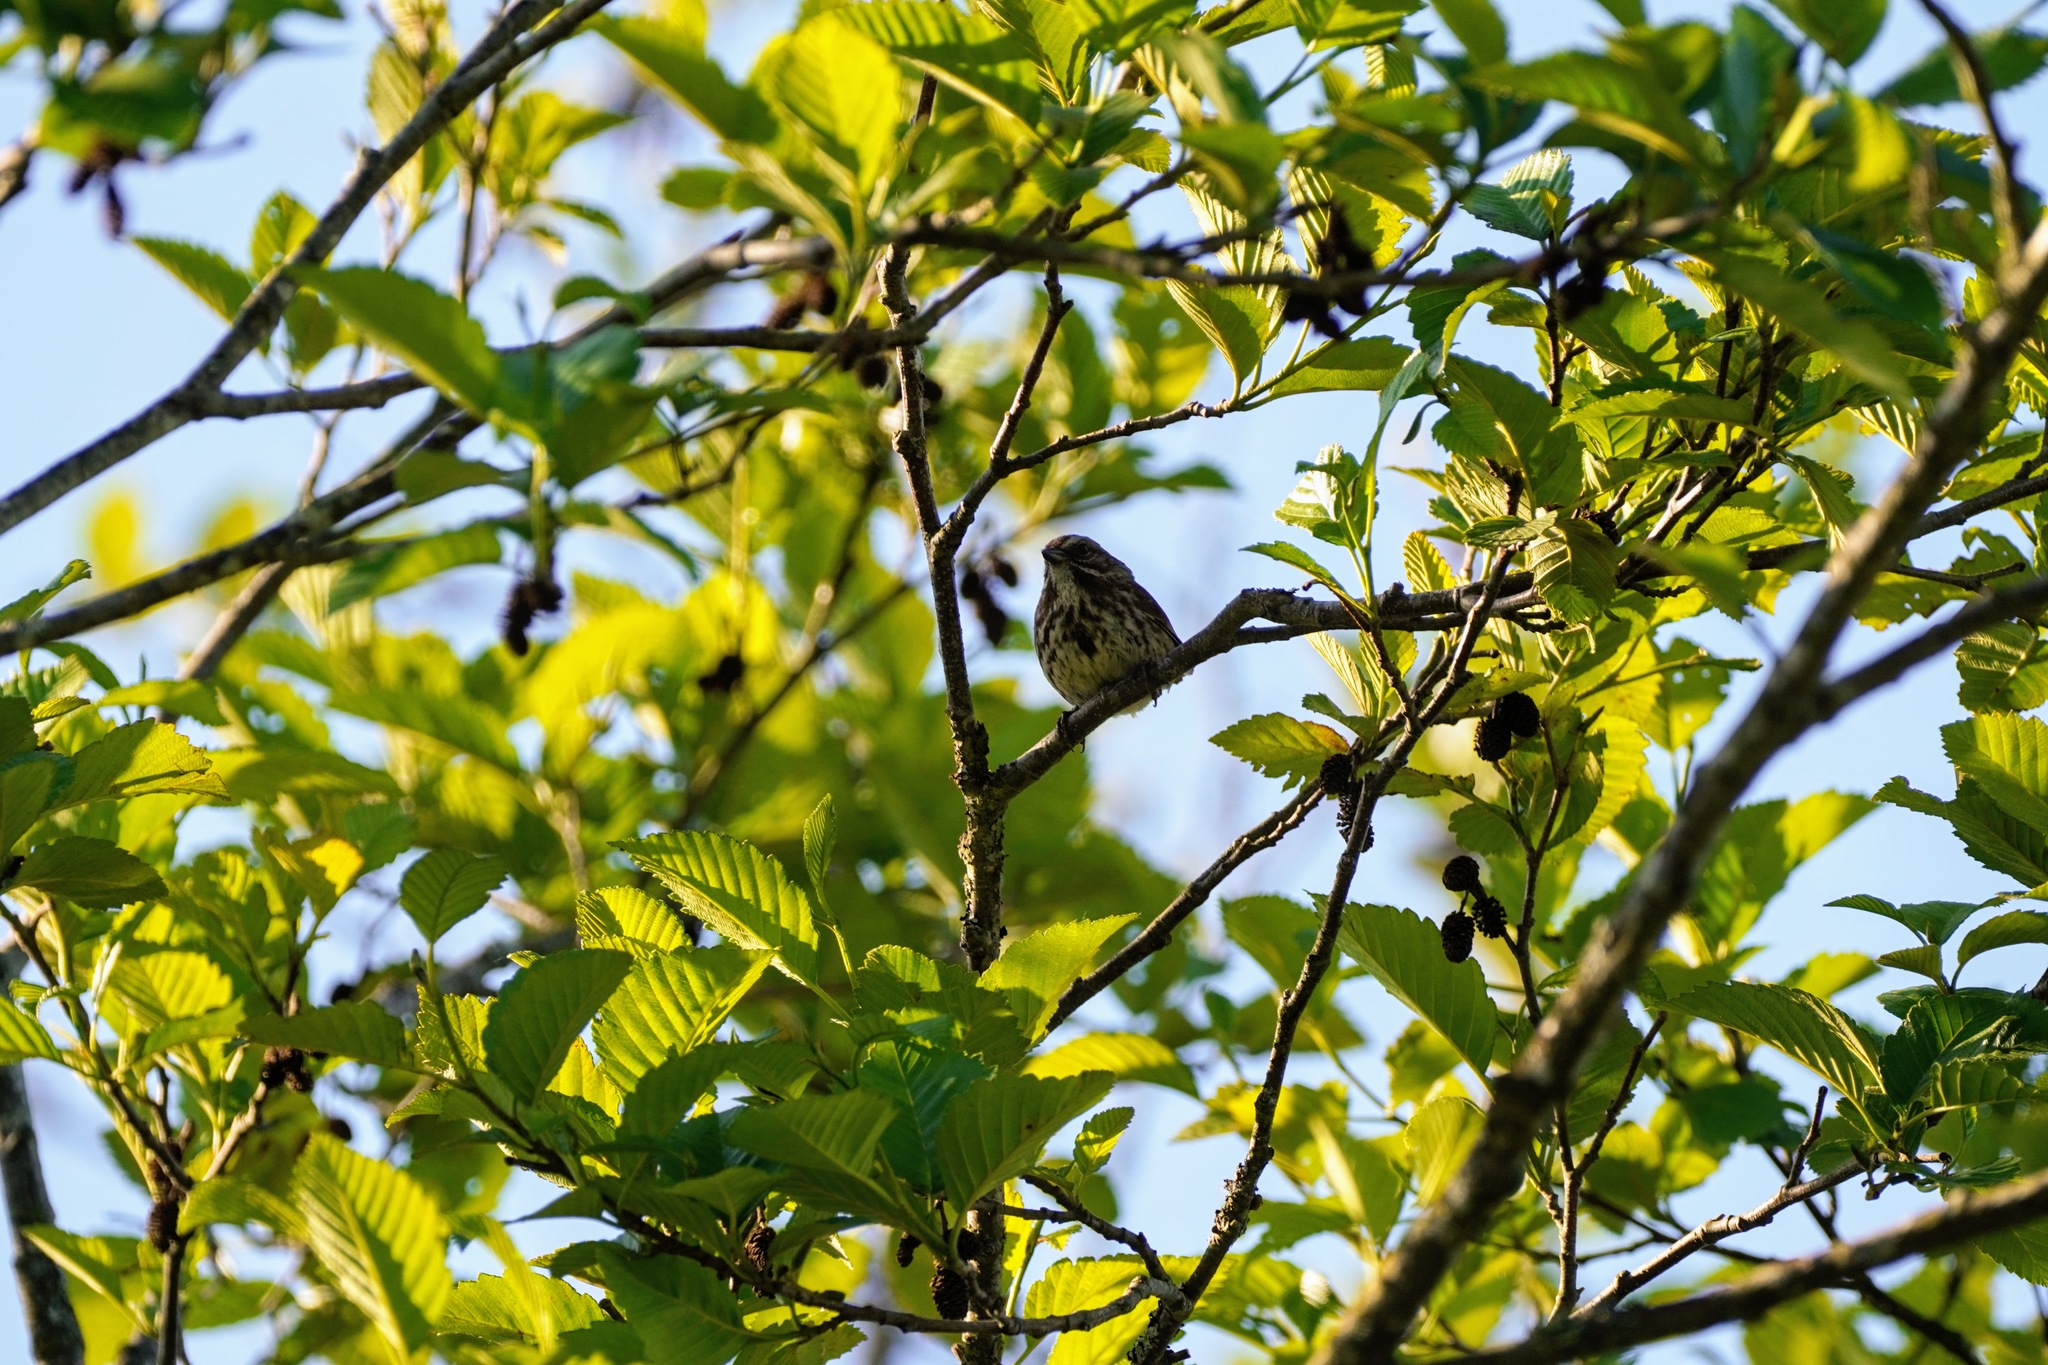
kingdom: Animalia
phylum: Chordata
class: Aves
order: Passeriformes
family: Passerellidae
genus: Melospiza
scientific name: Melospiza melodia
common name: Song sparrow
